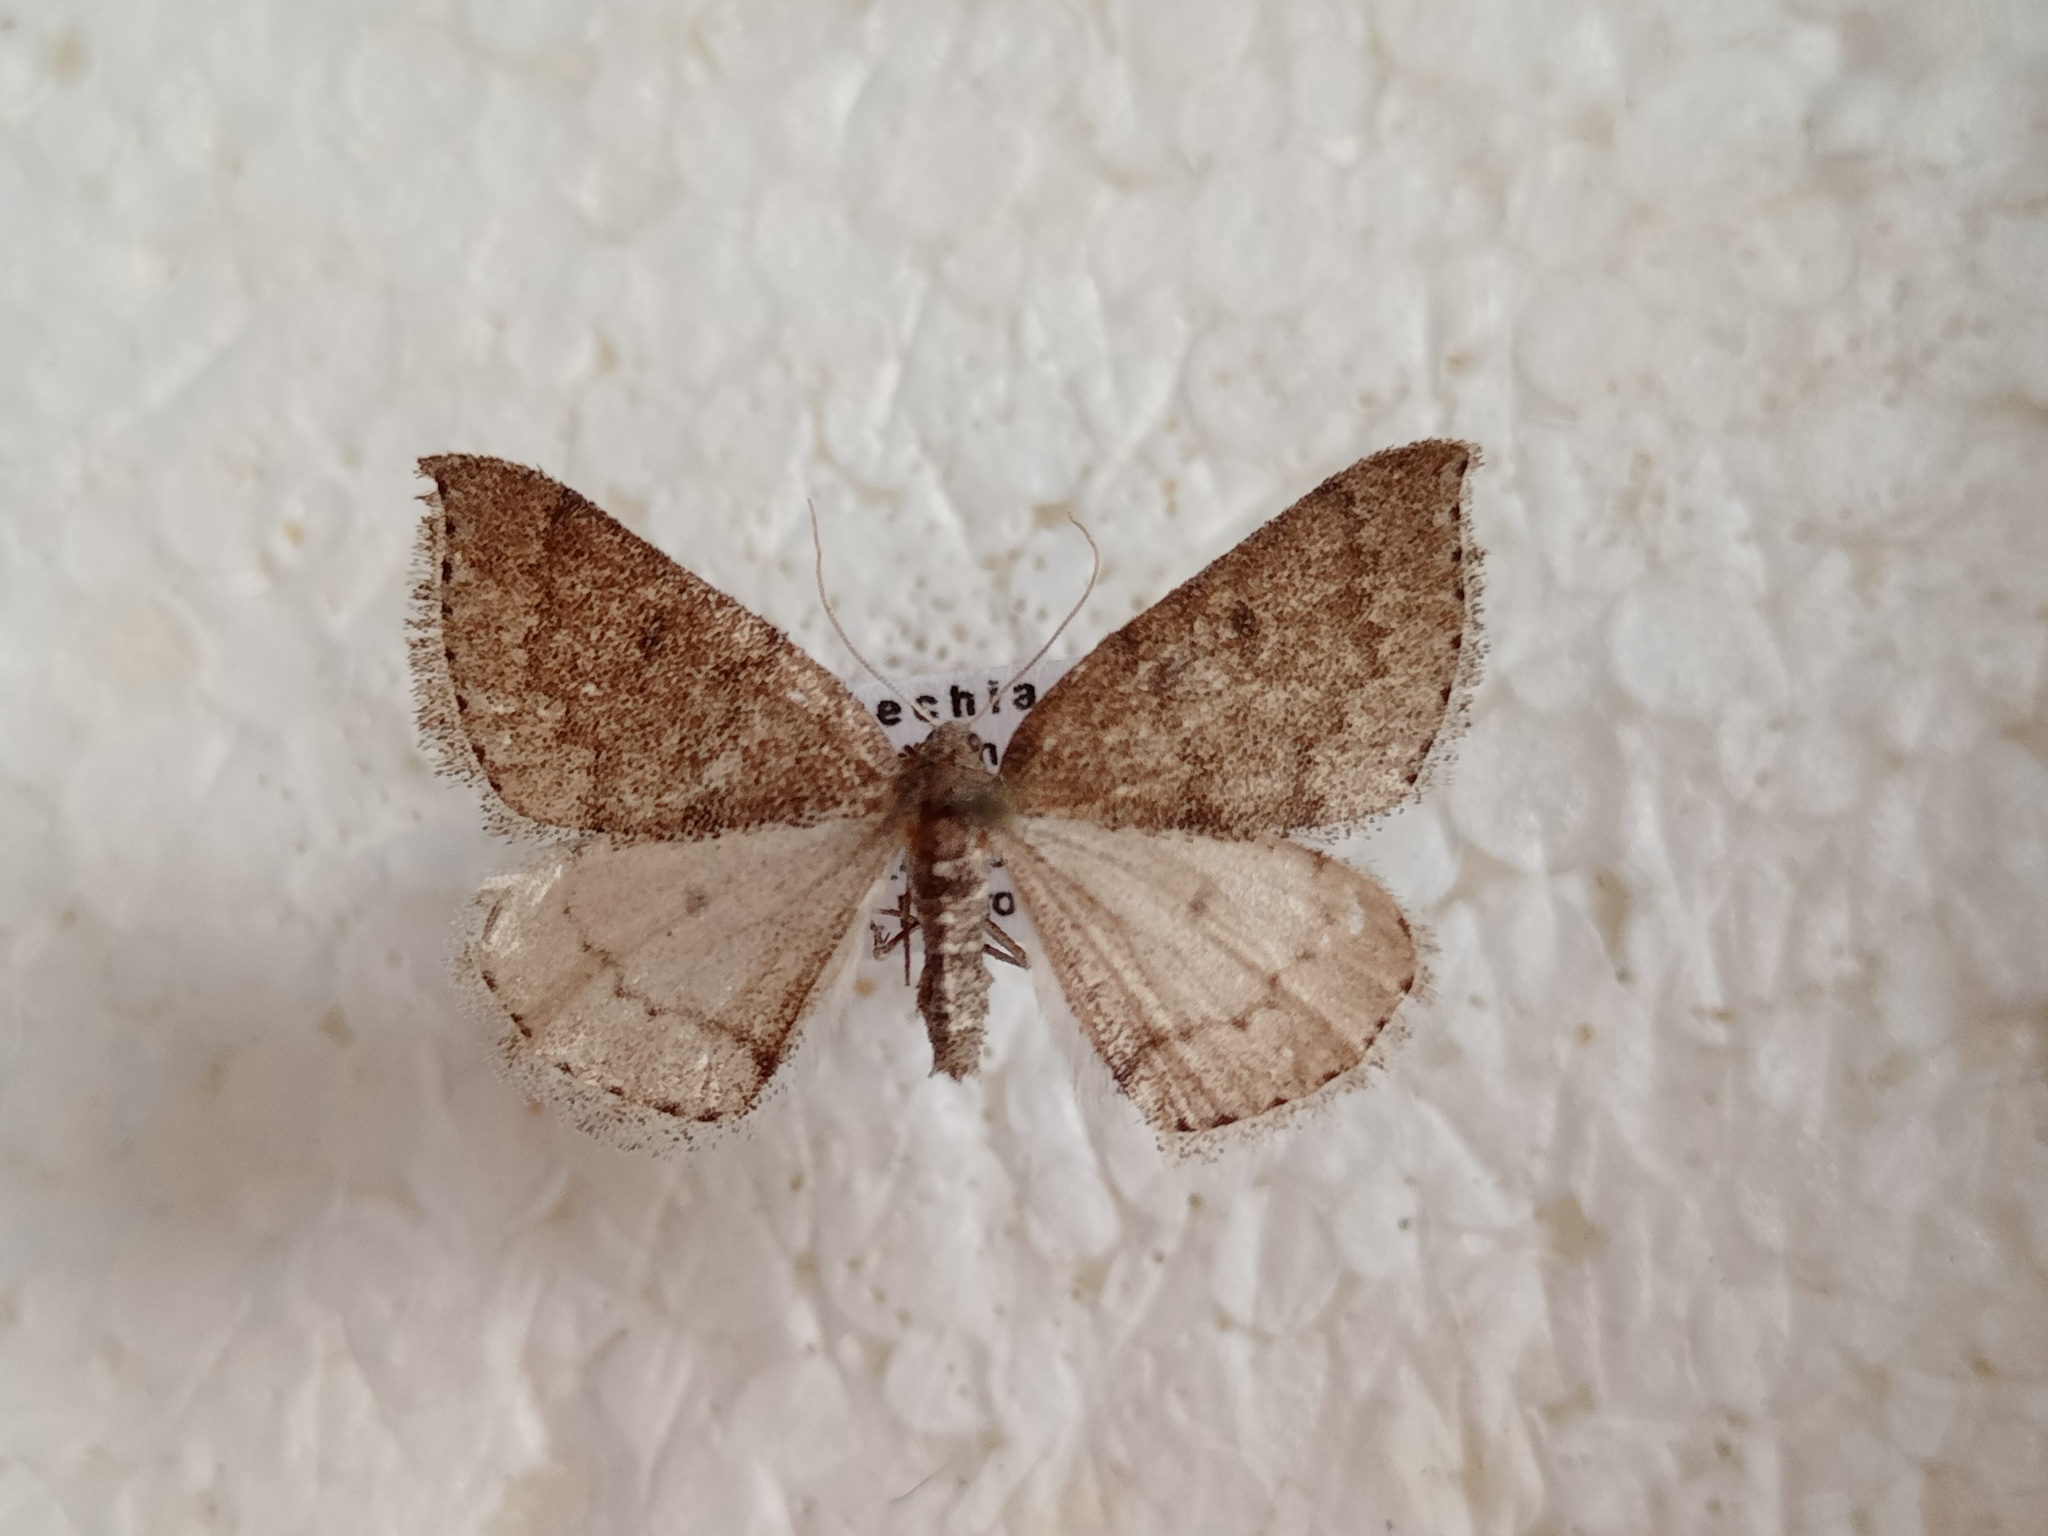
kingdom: Animalia
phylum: Arthropoda
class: Insecta
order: Lepidoptera
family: Geometridae
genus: Aleucis
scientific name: Aleucis distinctata
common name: Sloe carpet
